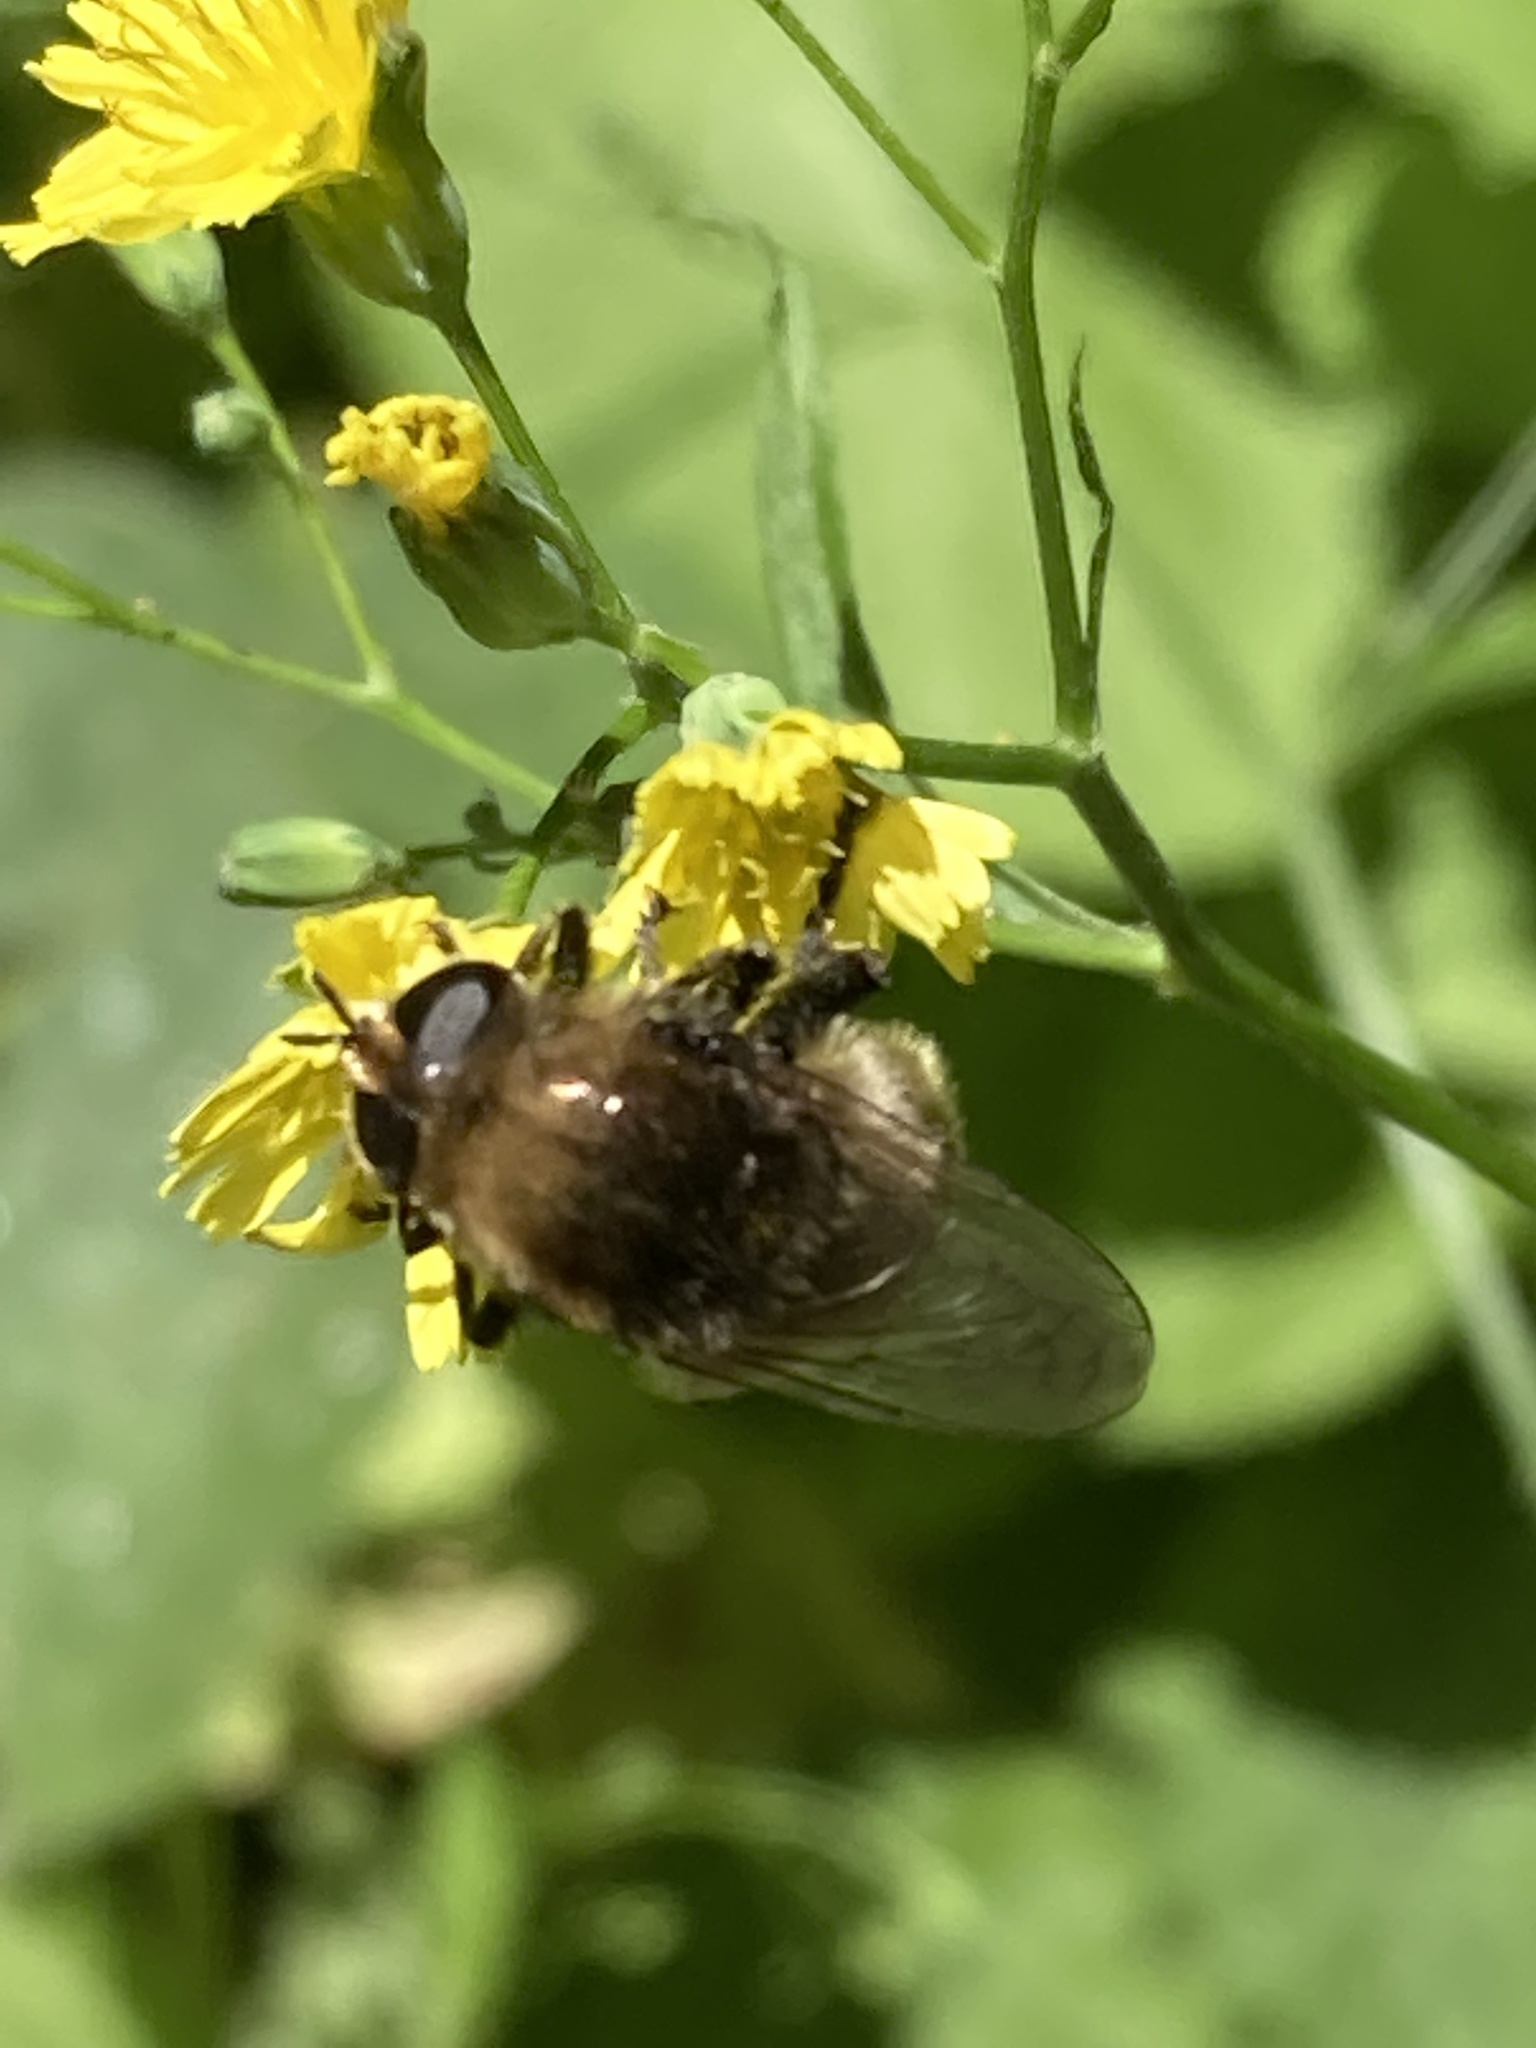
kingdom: Animalia
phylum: Arthropoda
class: Insecta
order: Diptera
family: Syrphidae
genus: Merodon
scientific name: Merodon equestris
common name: Greater bulb-fly
